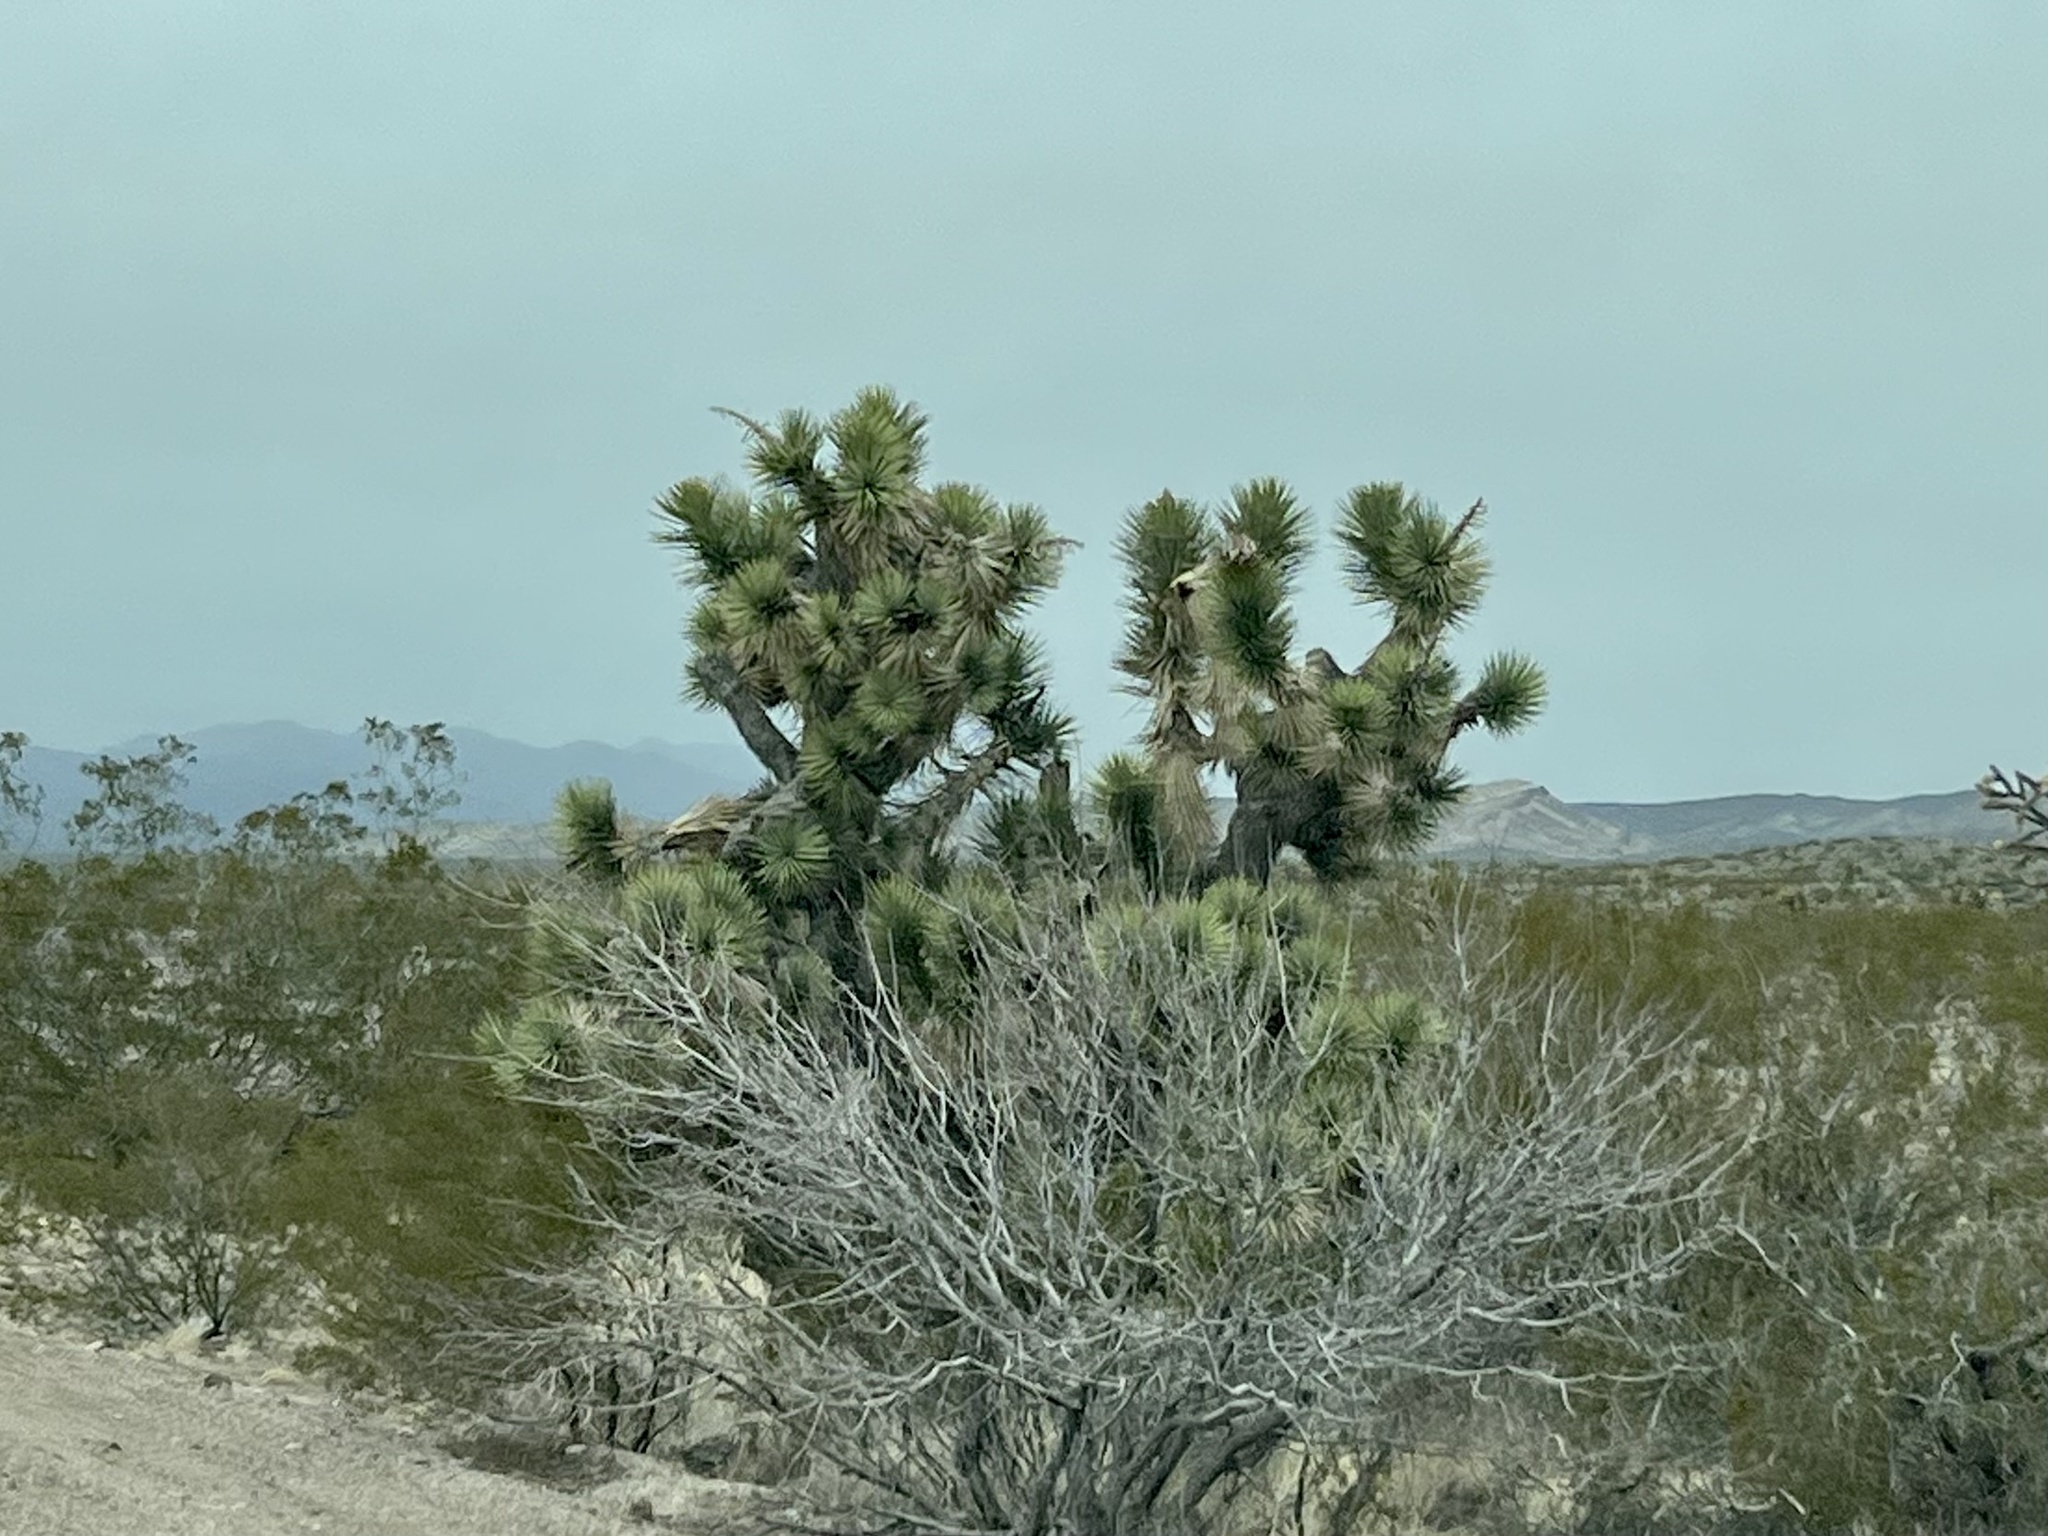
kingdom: Plantae
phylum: Tracheophyta
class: Liliopsida
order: Asparagales
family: Asparagaceae
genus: Yucca
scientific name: Yucca brevifolia
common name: Joshua tree
